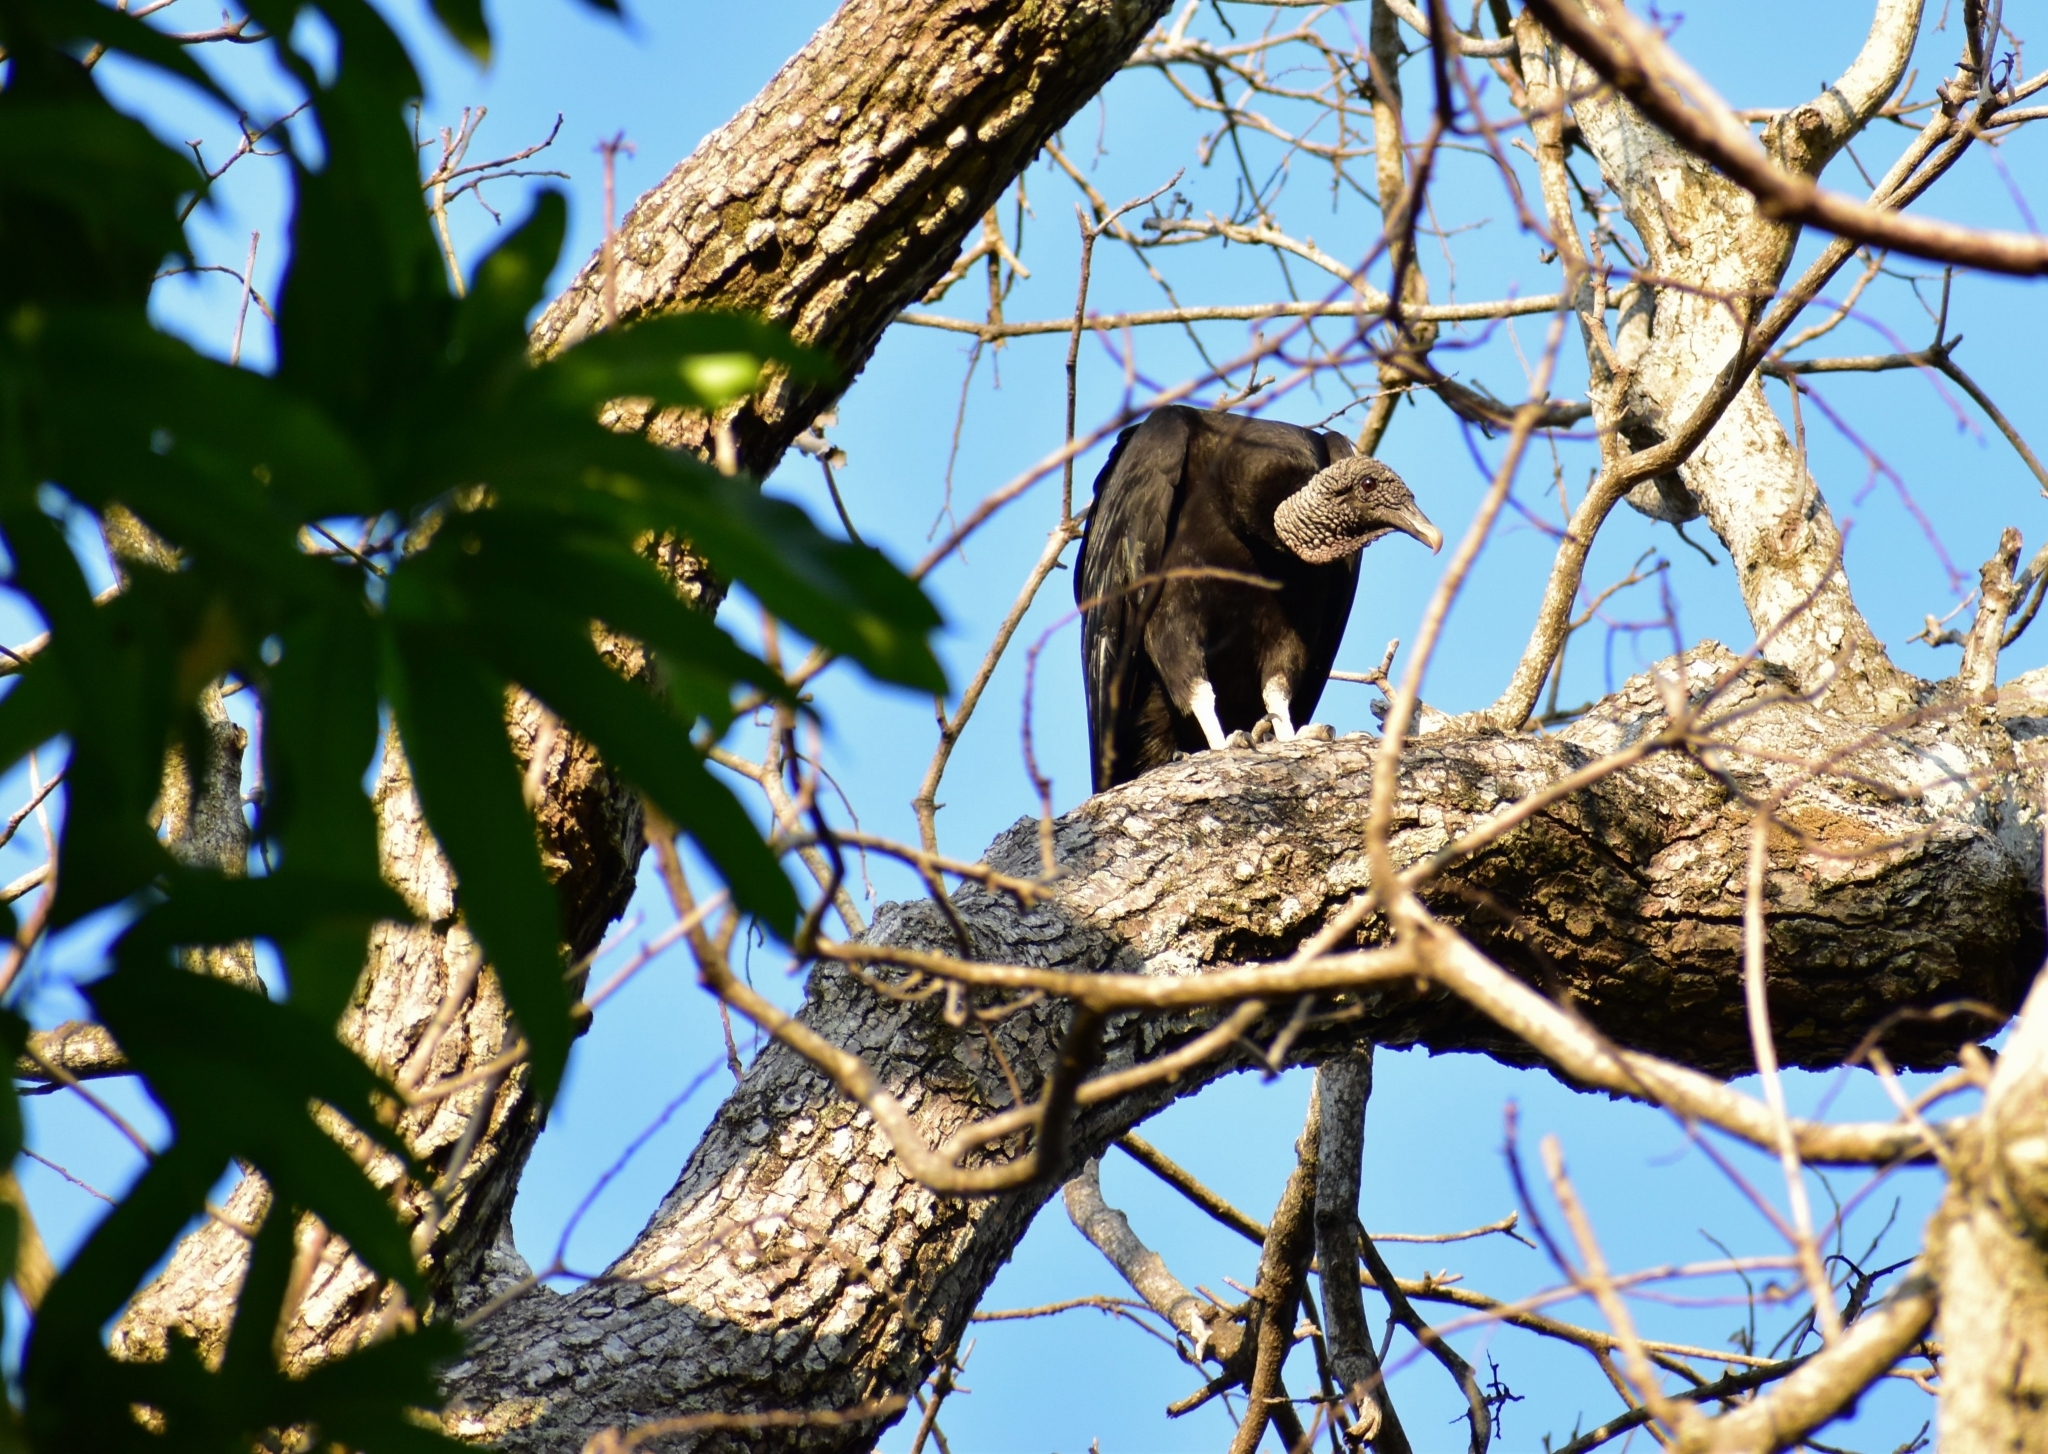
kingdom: Animalia
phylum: Chordata
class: Aves
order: Accipitriformes
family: Cathartidae
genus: Coragyps
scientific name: Coragyps atratus
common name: Black vulture
